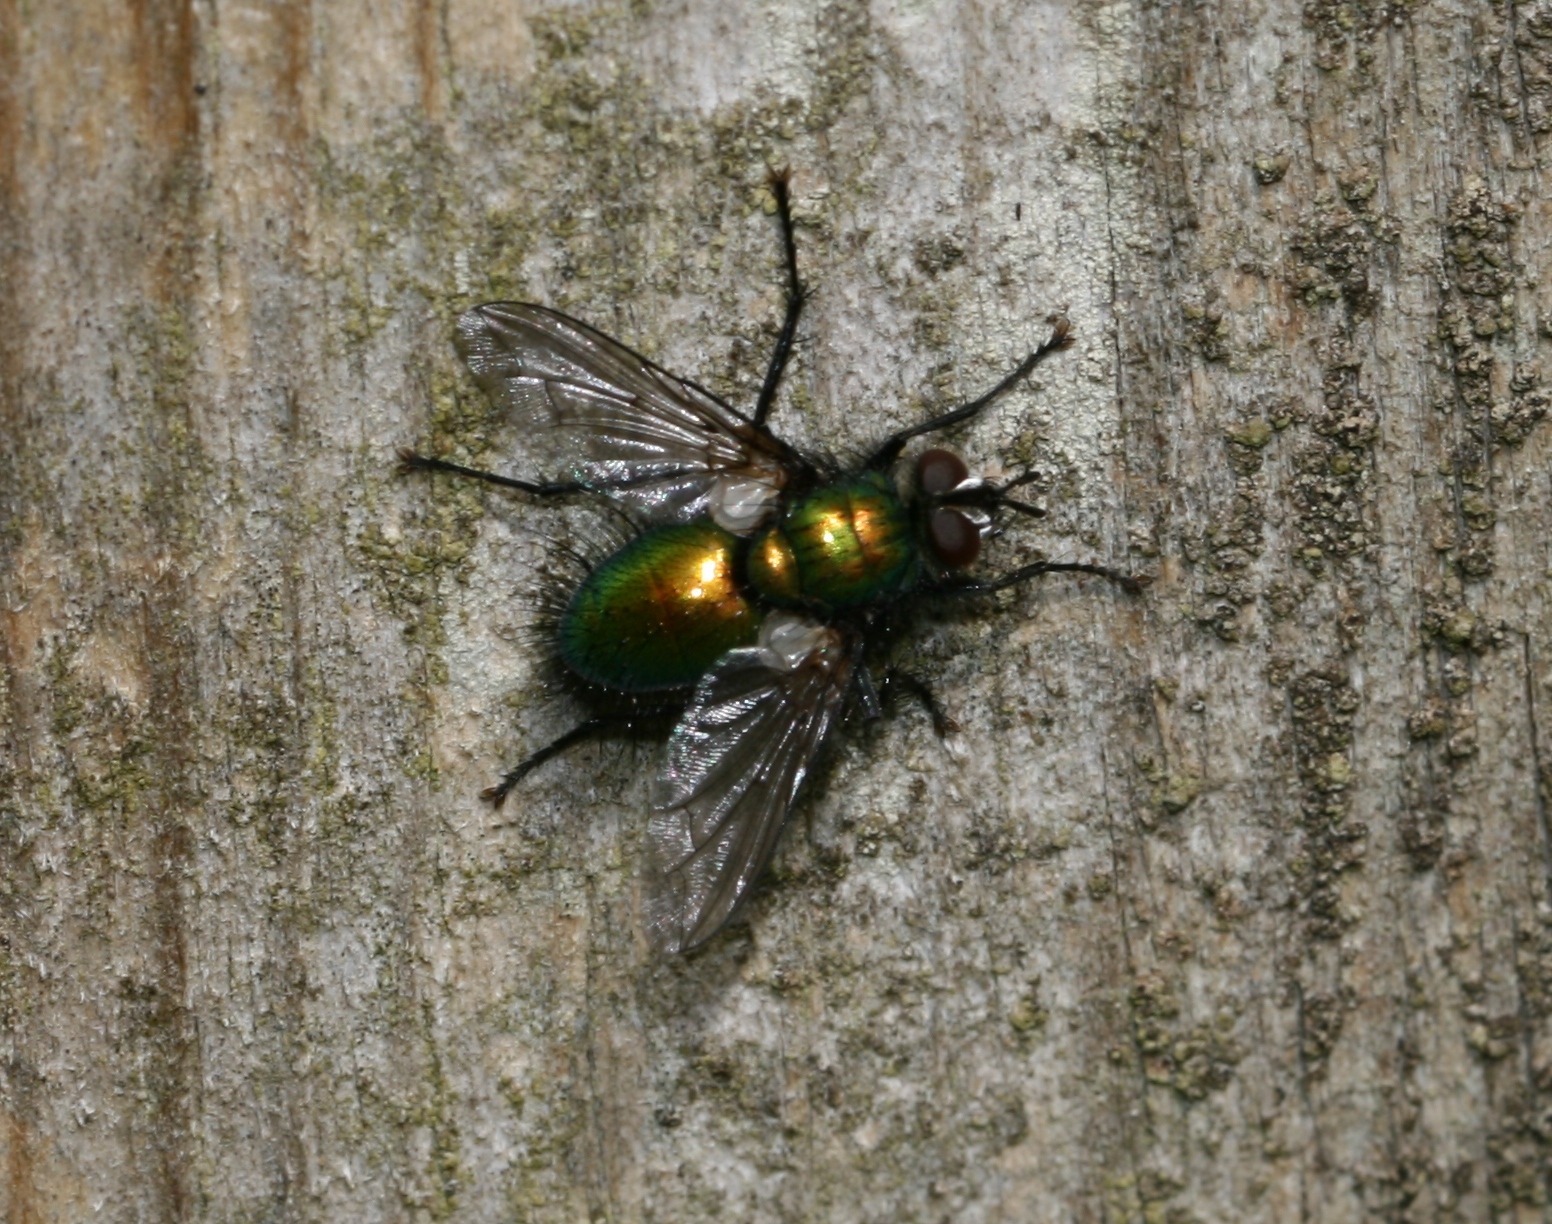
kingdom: Animalia
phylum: Arthropoda
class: Insecta
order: Diptera
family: Tachinidae
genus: Gymnocheta
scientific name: Gymnocheta viridis
